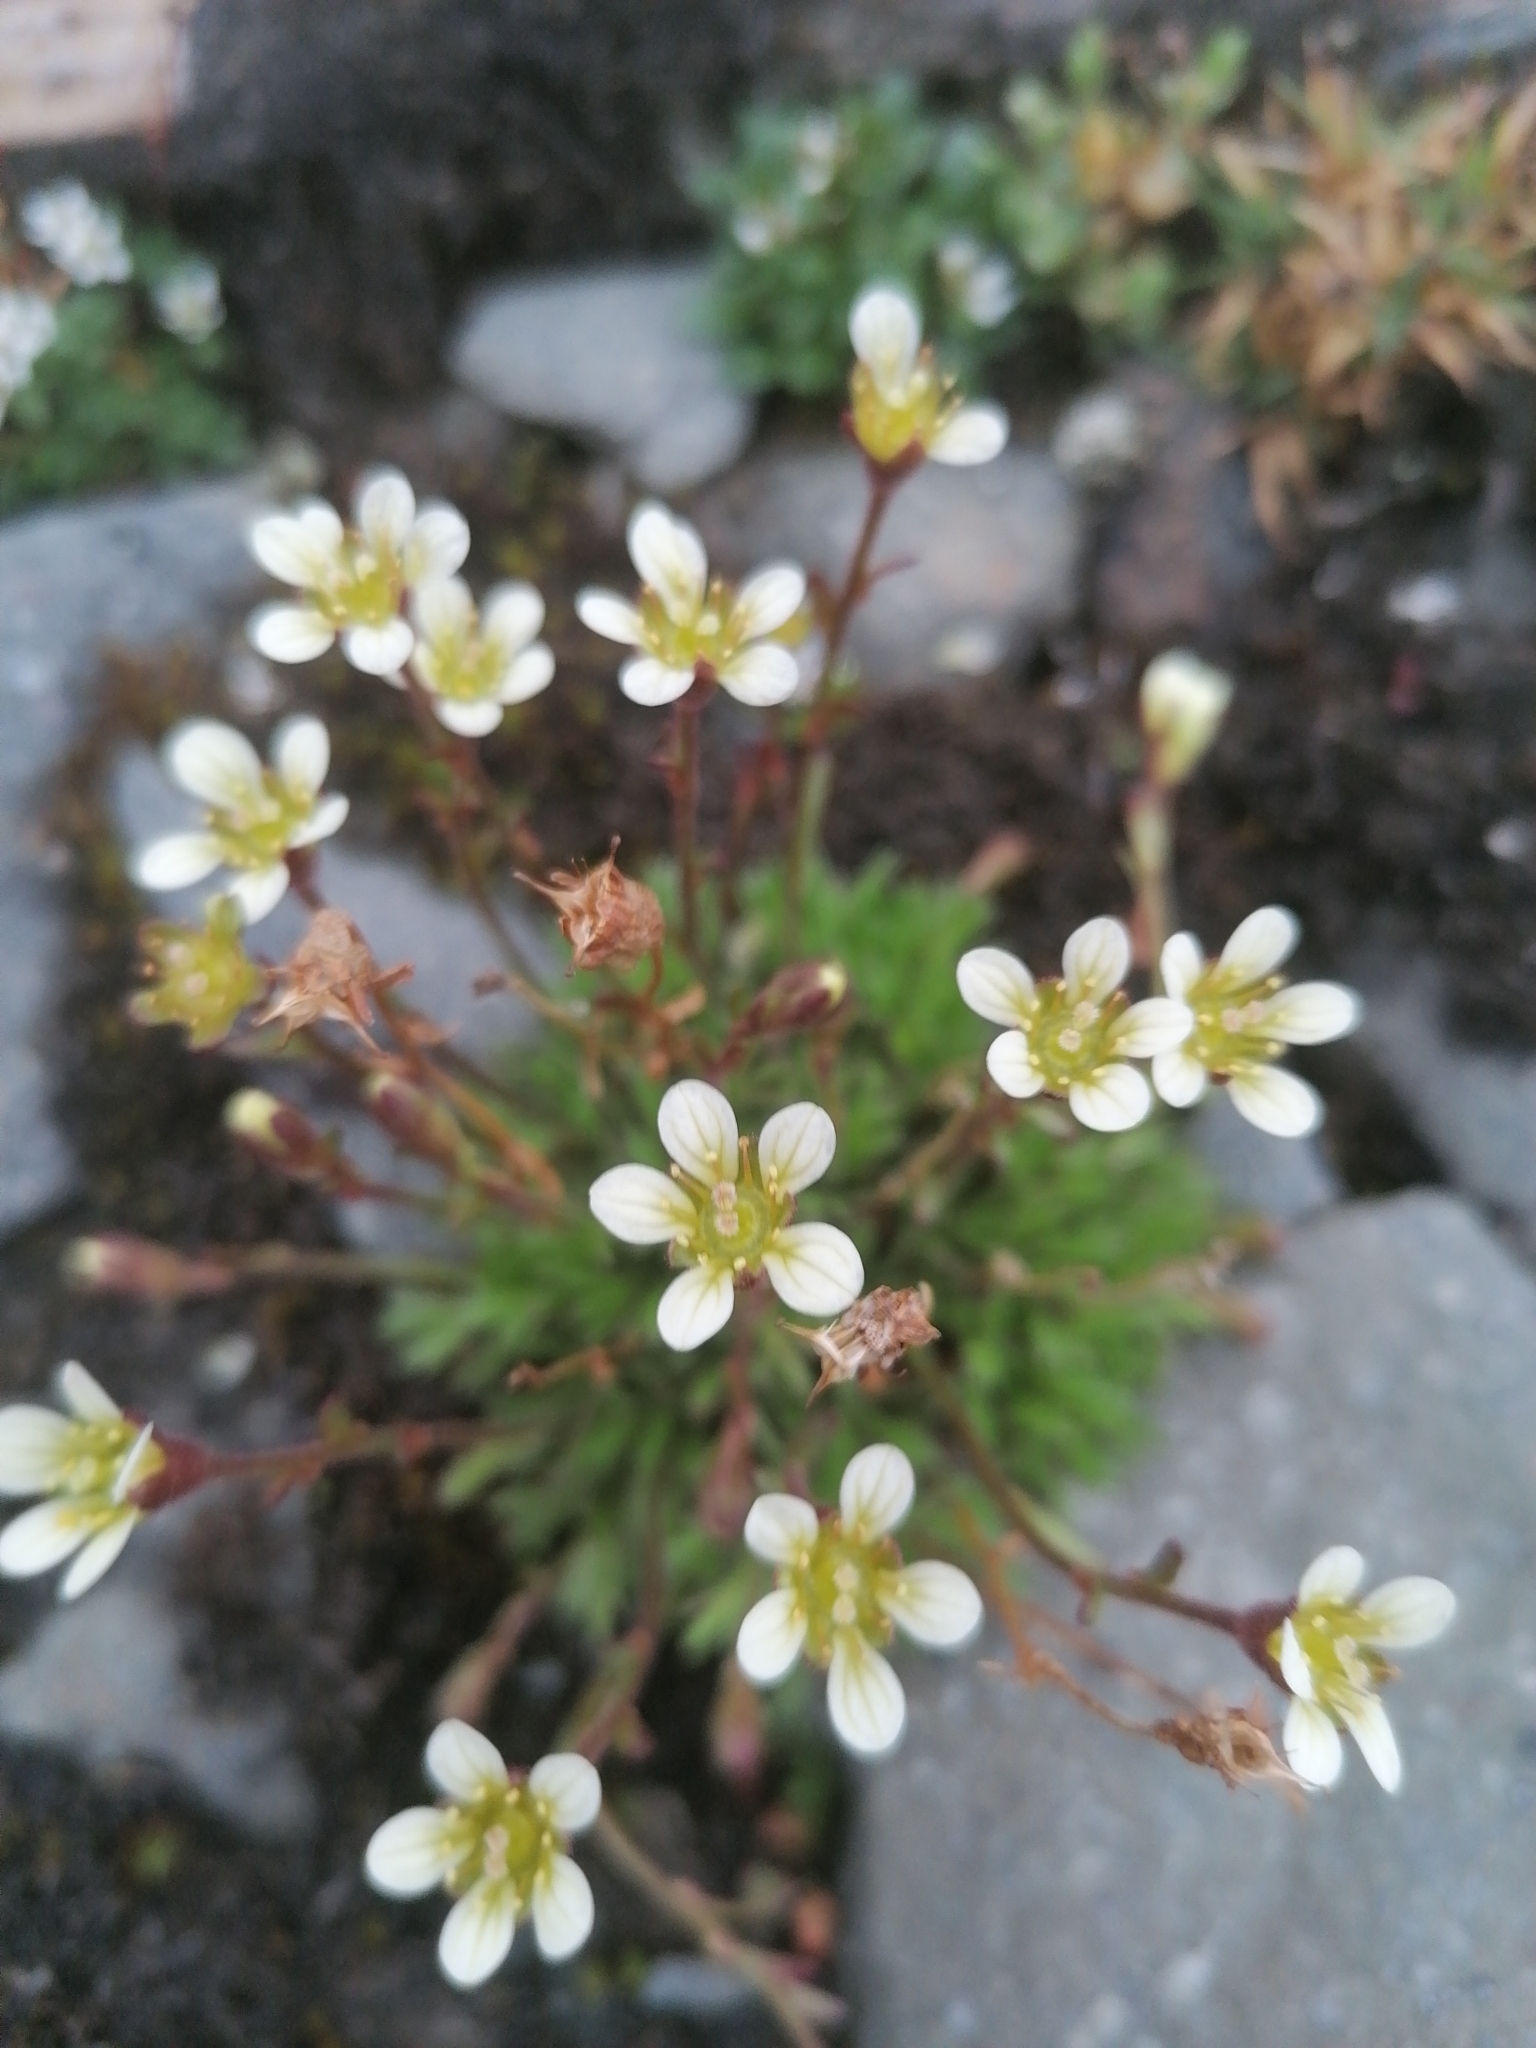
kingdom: Plantae
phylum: Tracheophyta
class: Magnoliopsida
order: Saxifragales
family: Saxifragaceae
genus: Saxifraga
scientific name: Saxifraga cespitosa
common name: Tufted saxifrage
